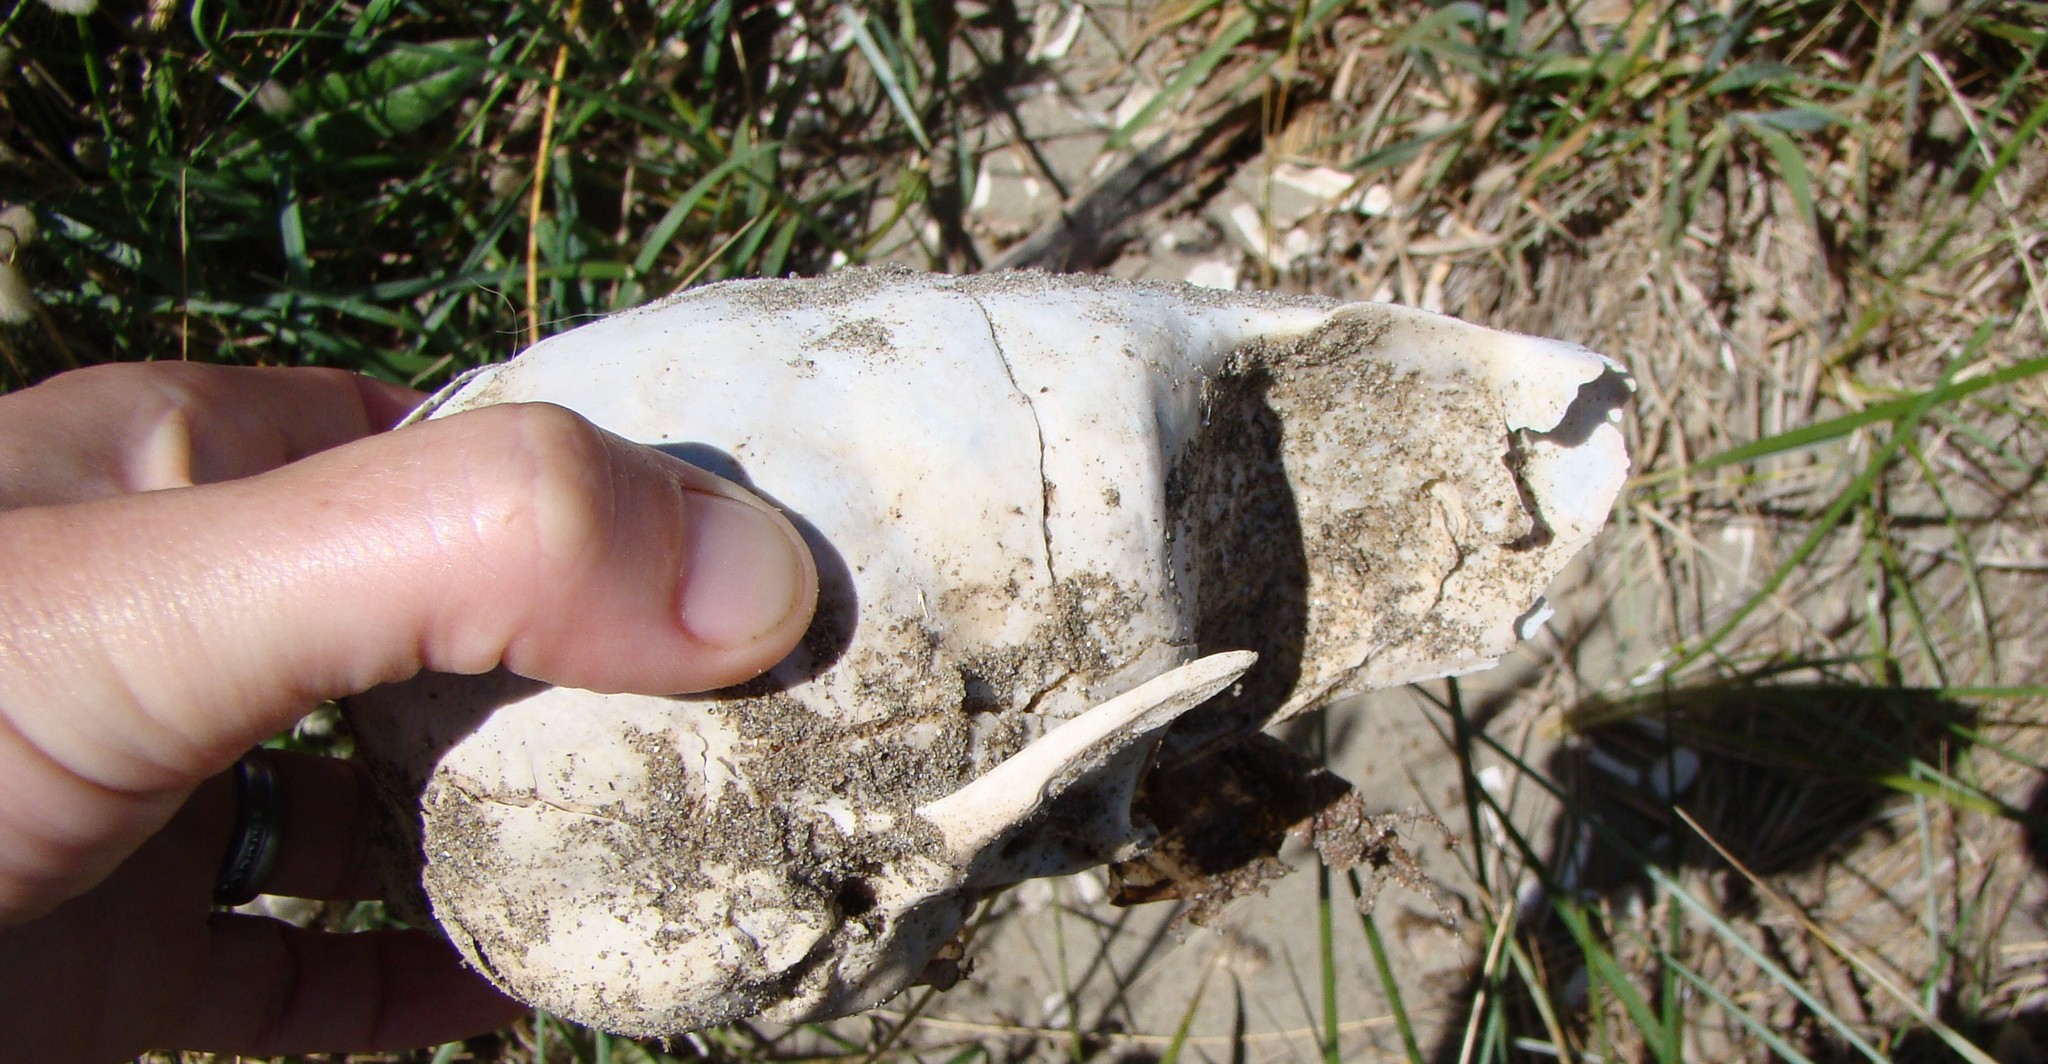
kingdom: Animalia
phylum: Chordata
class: Mammalia
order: Carnivora
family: Otariidae
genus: Arctocephalus
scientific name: Arctocephalus forsteri
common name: New zealand fur seal
